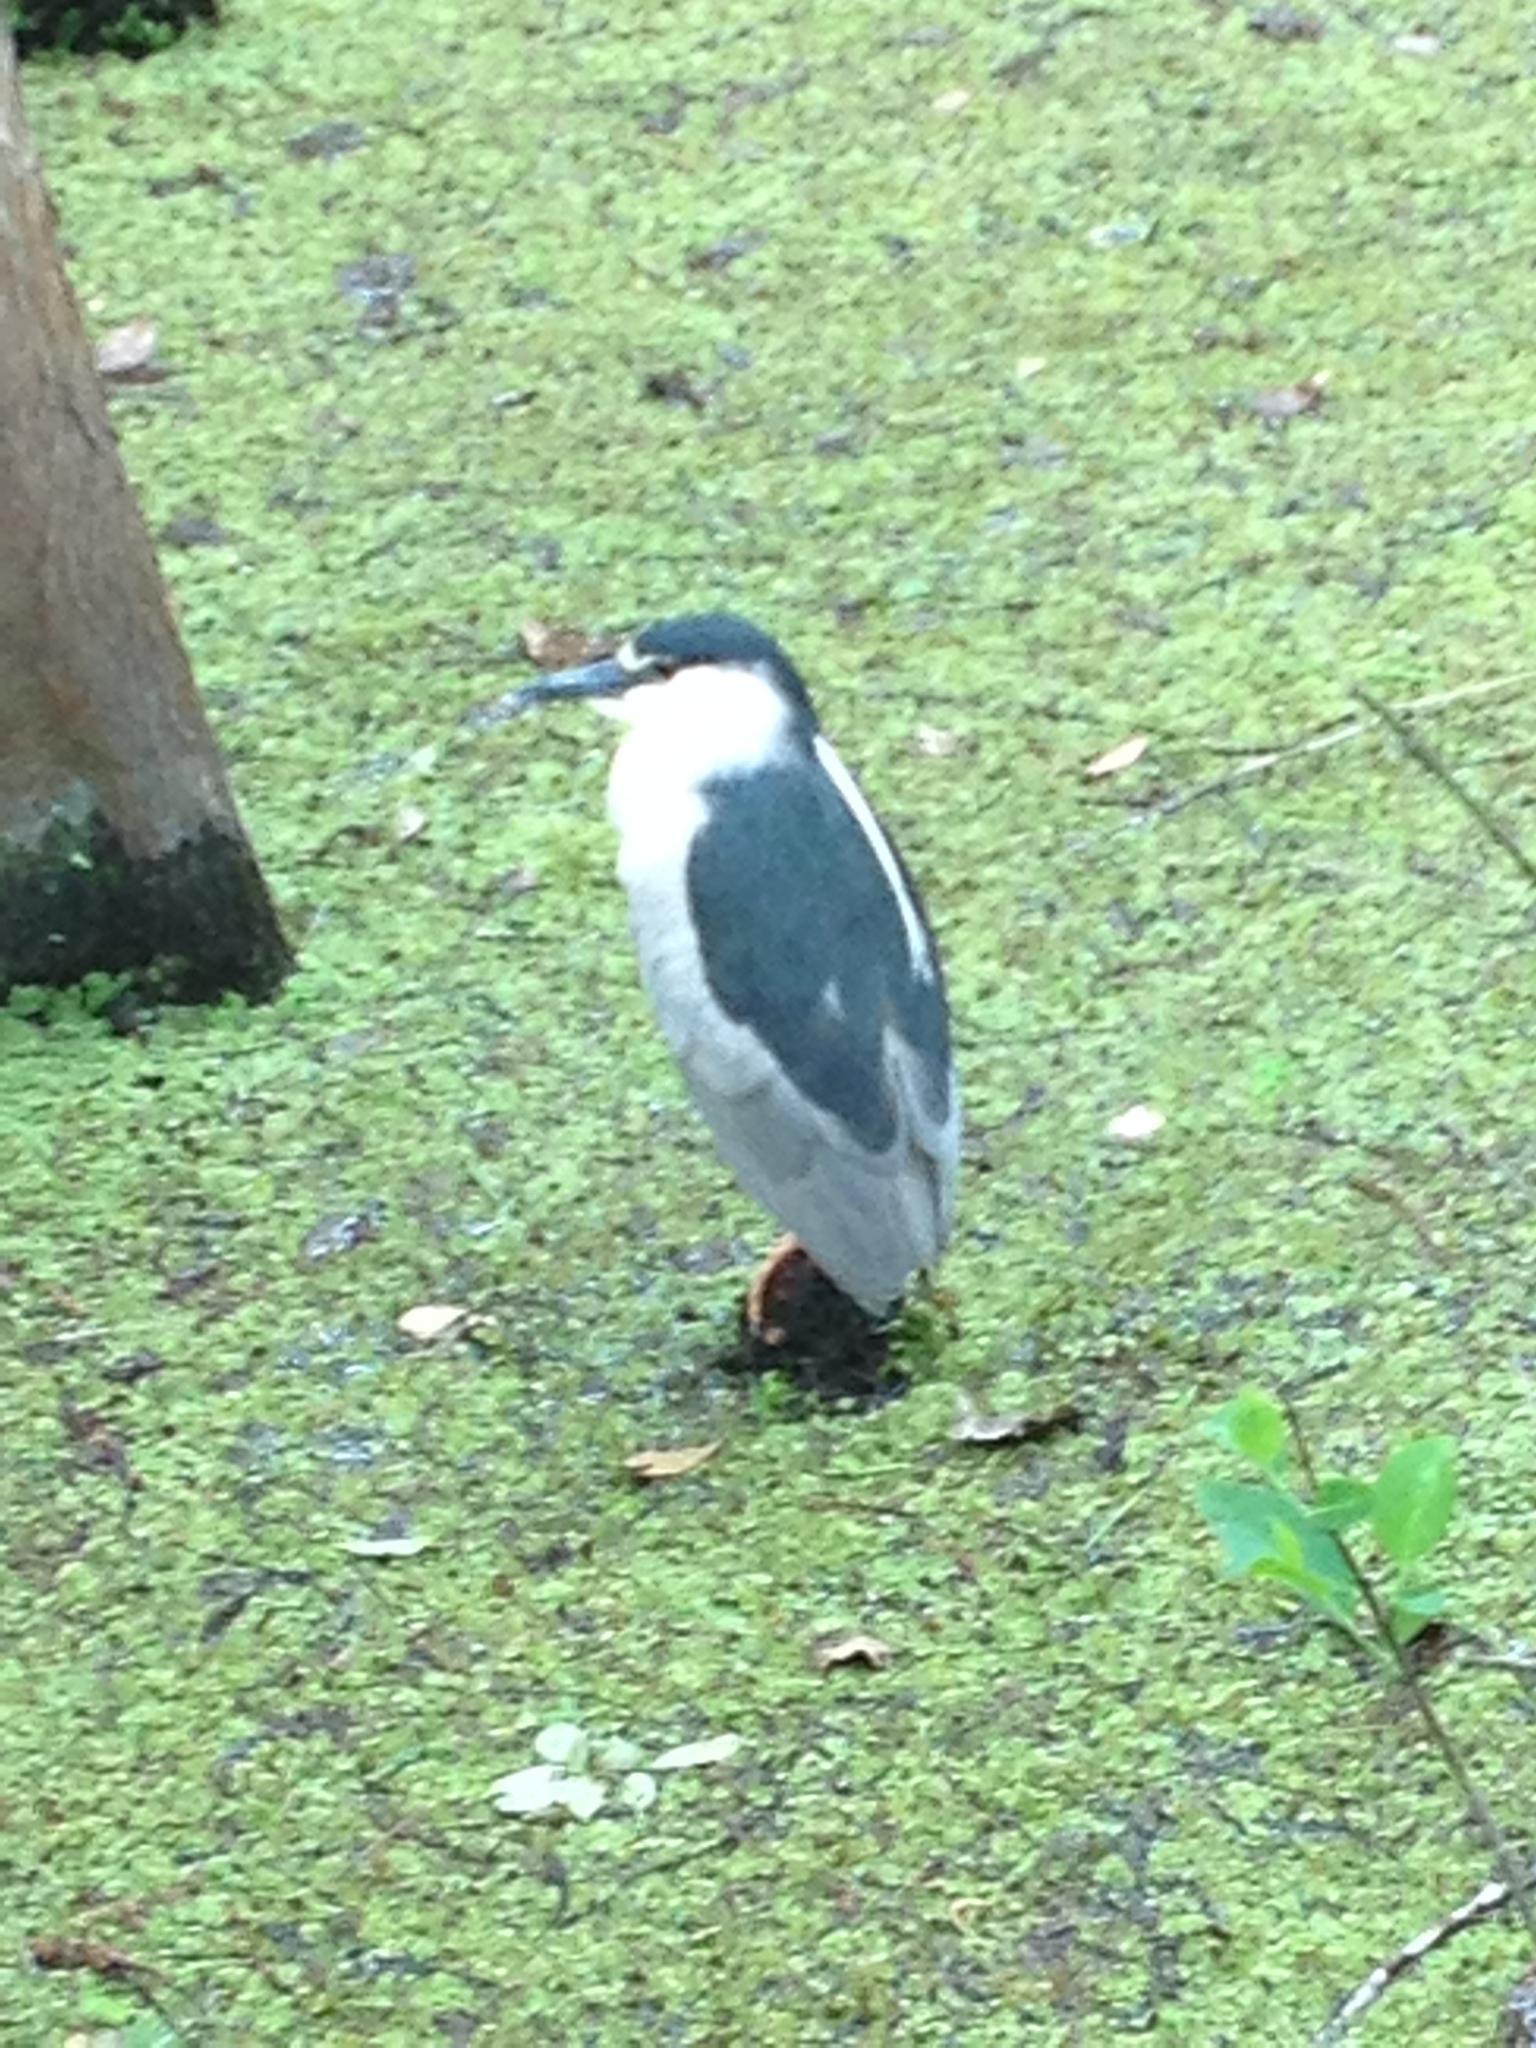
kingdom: Animalia
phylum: Chordata
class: Aves
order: Pelecaniformes
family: Ardeidae
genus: Nycticorax
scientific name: Nycticorax nycticorax
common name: Black-crowned night heron
